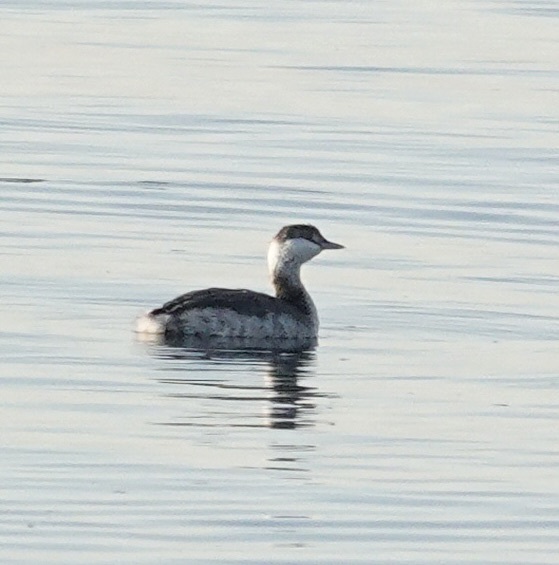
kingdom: Animalia
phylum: Chordata
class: Aves
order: Podicipediformes
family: Podicipedidae
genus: Podiceps
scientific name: Podiceps auritus
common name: Horned grebe
